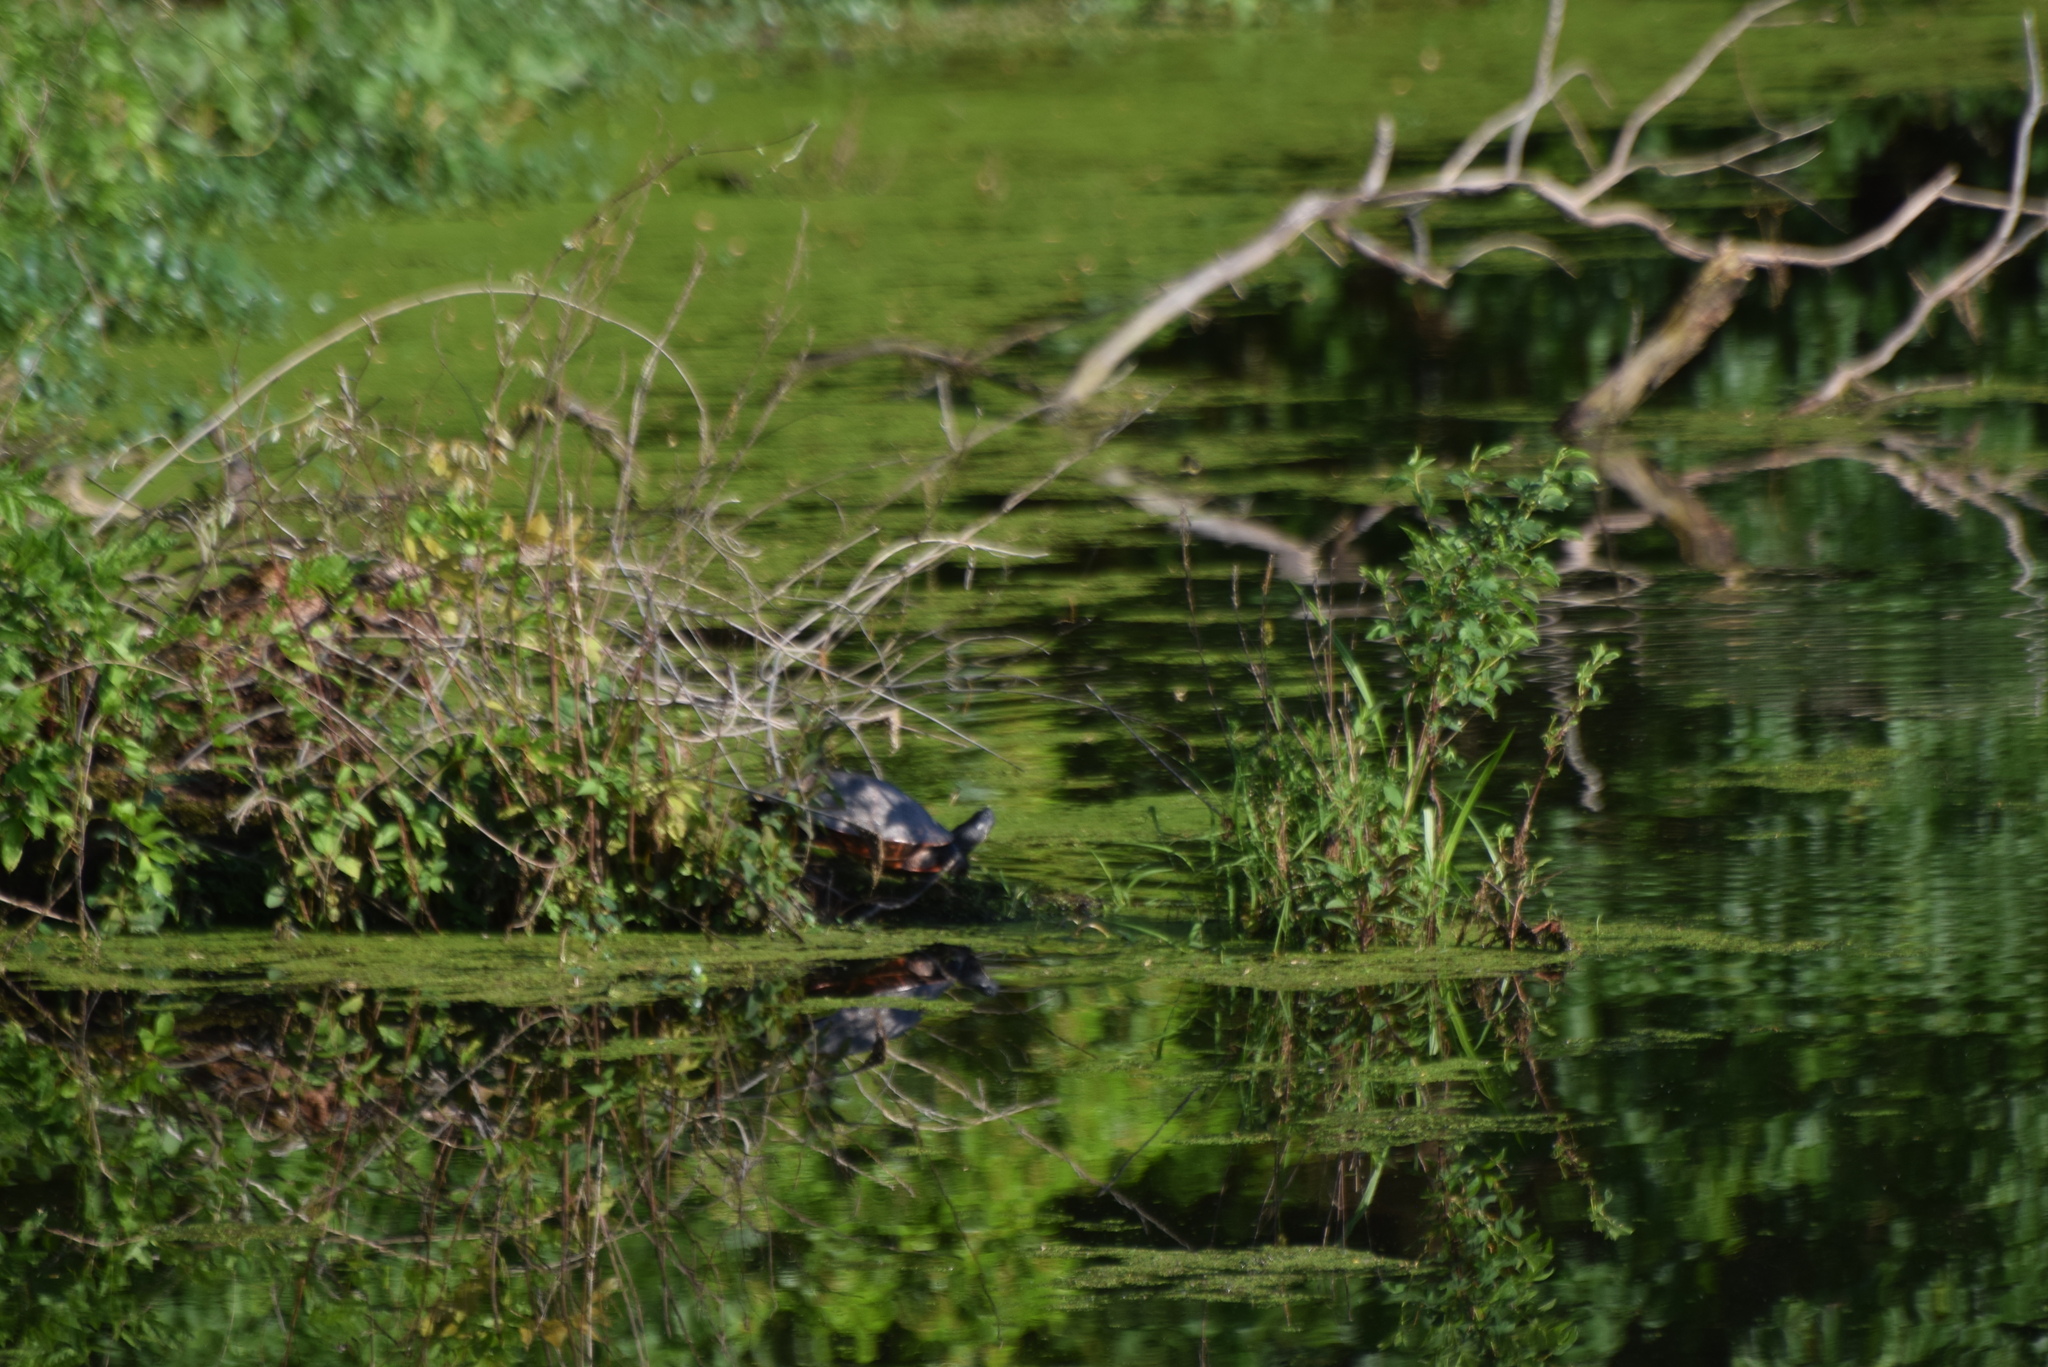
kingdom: Animalia
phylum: Chordata
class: Testudines
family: Emydidae
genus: Pseudemys
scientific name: Pseudemys rubriventris
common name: American red-bellied turtle
